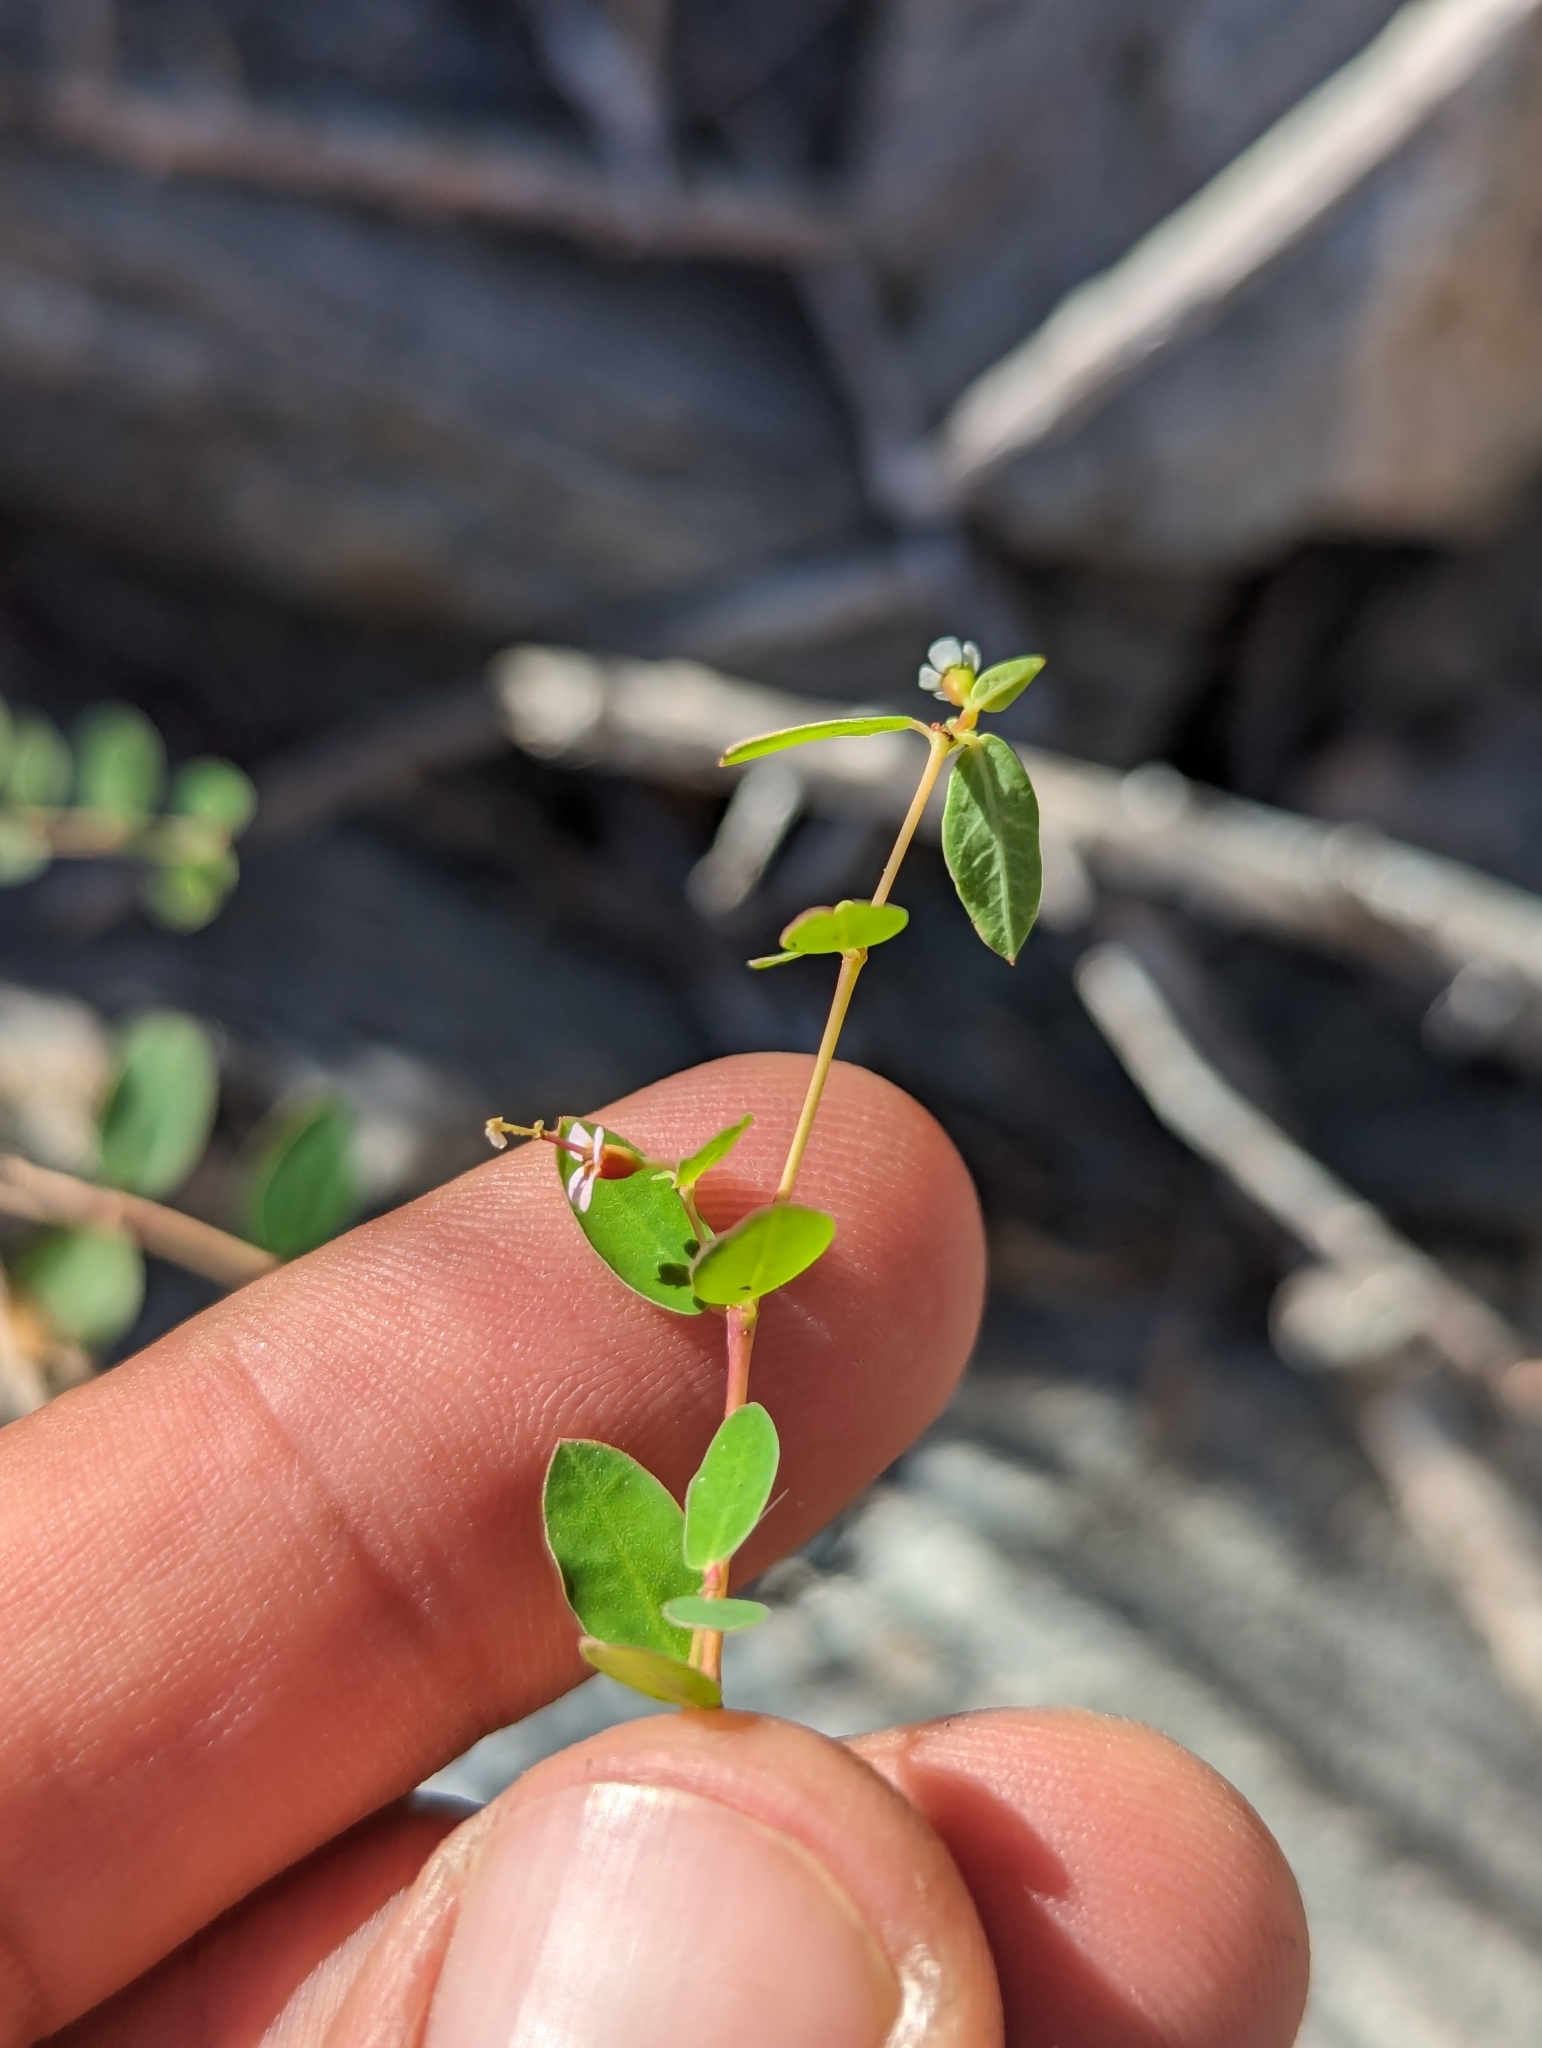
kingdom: Plantae
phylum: Tracheophyta
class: Magnoliopsida
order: Malpighiales
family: Euphorbiaceae
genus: Euphorbia
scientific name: Euphorbia magdalenae
